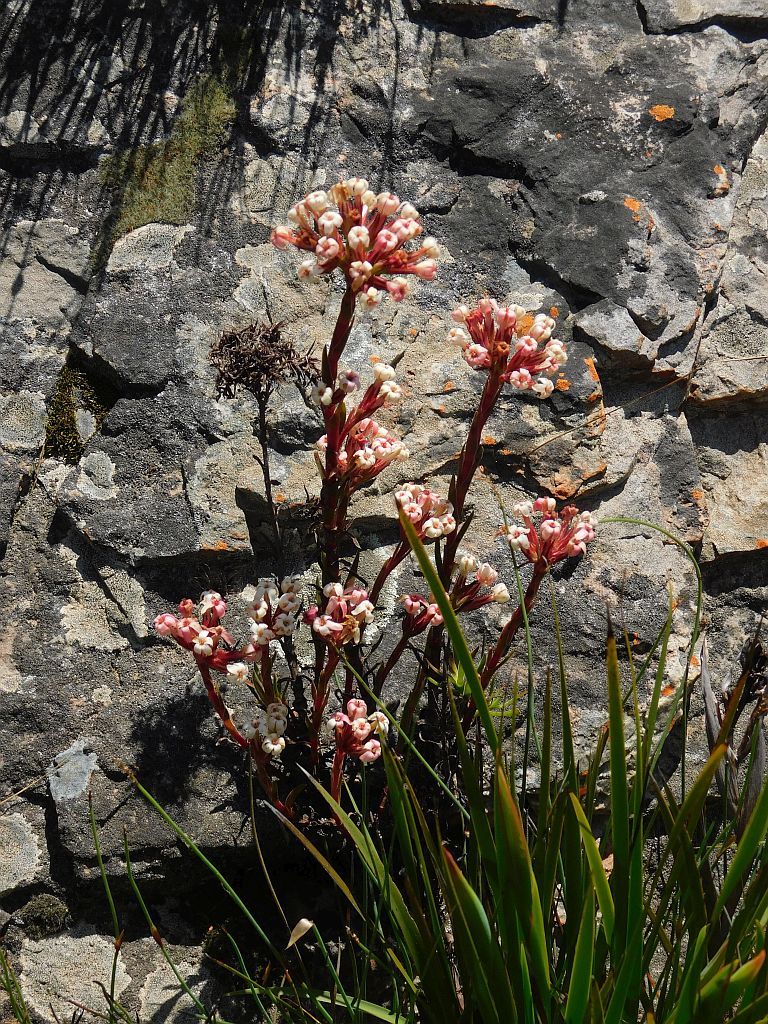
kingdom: Plantae
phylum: Tracheophyta
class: Magnoliopsida
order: Saxifragales
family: Crassulaceae
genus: Crassula
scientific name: Crassula fascicularis
